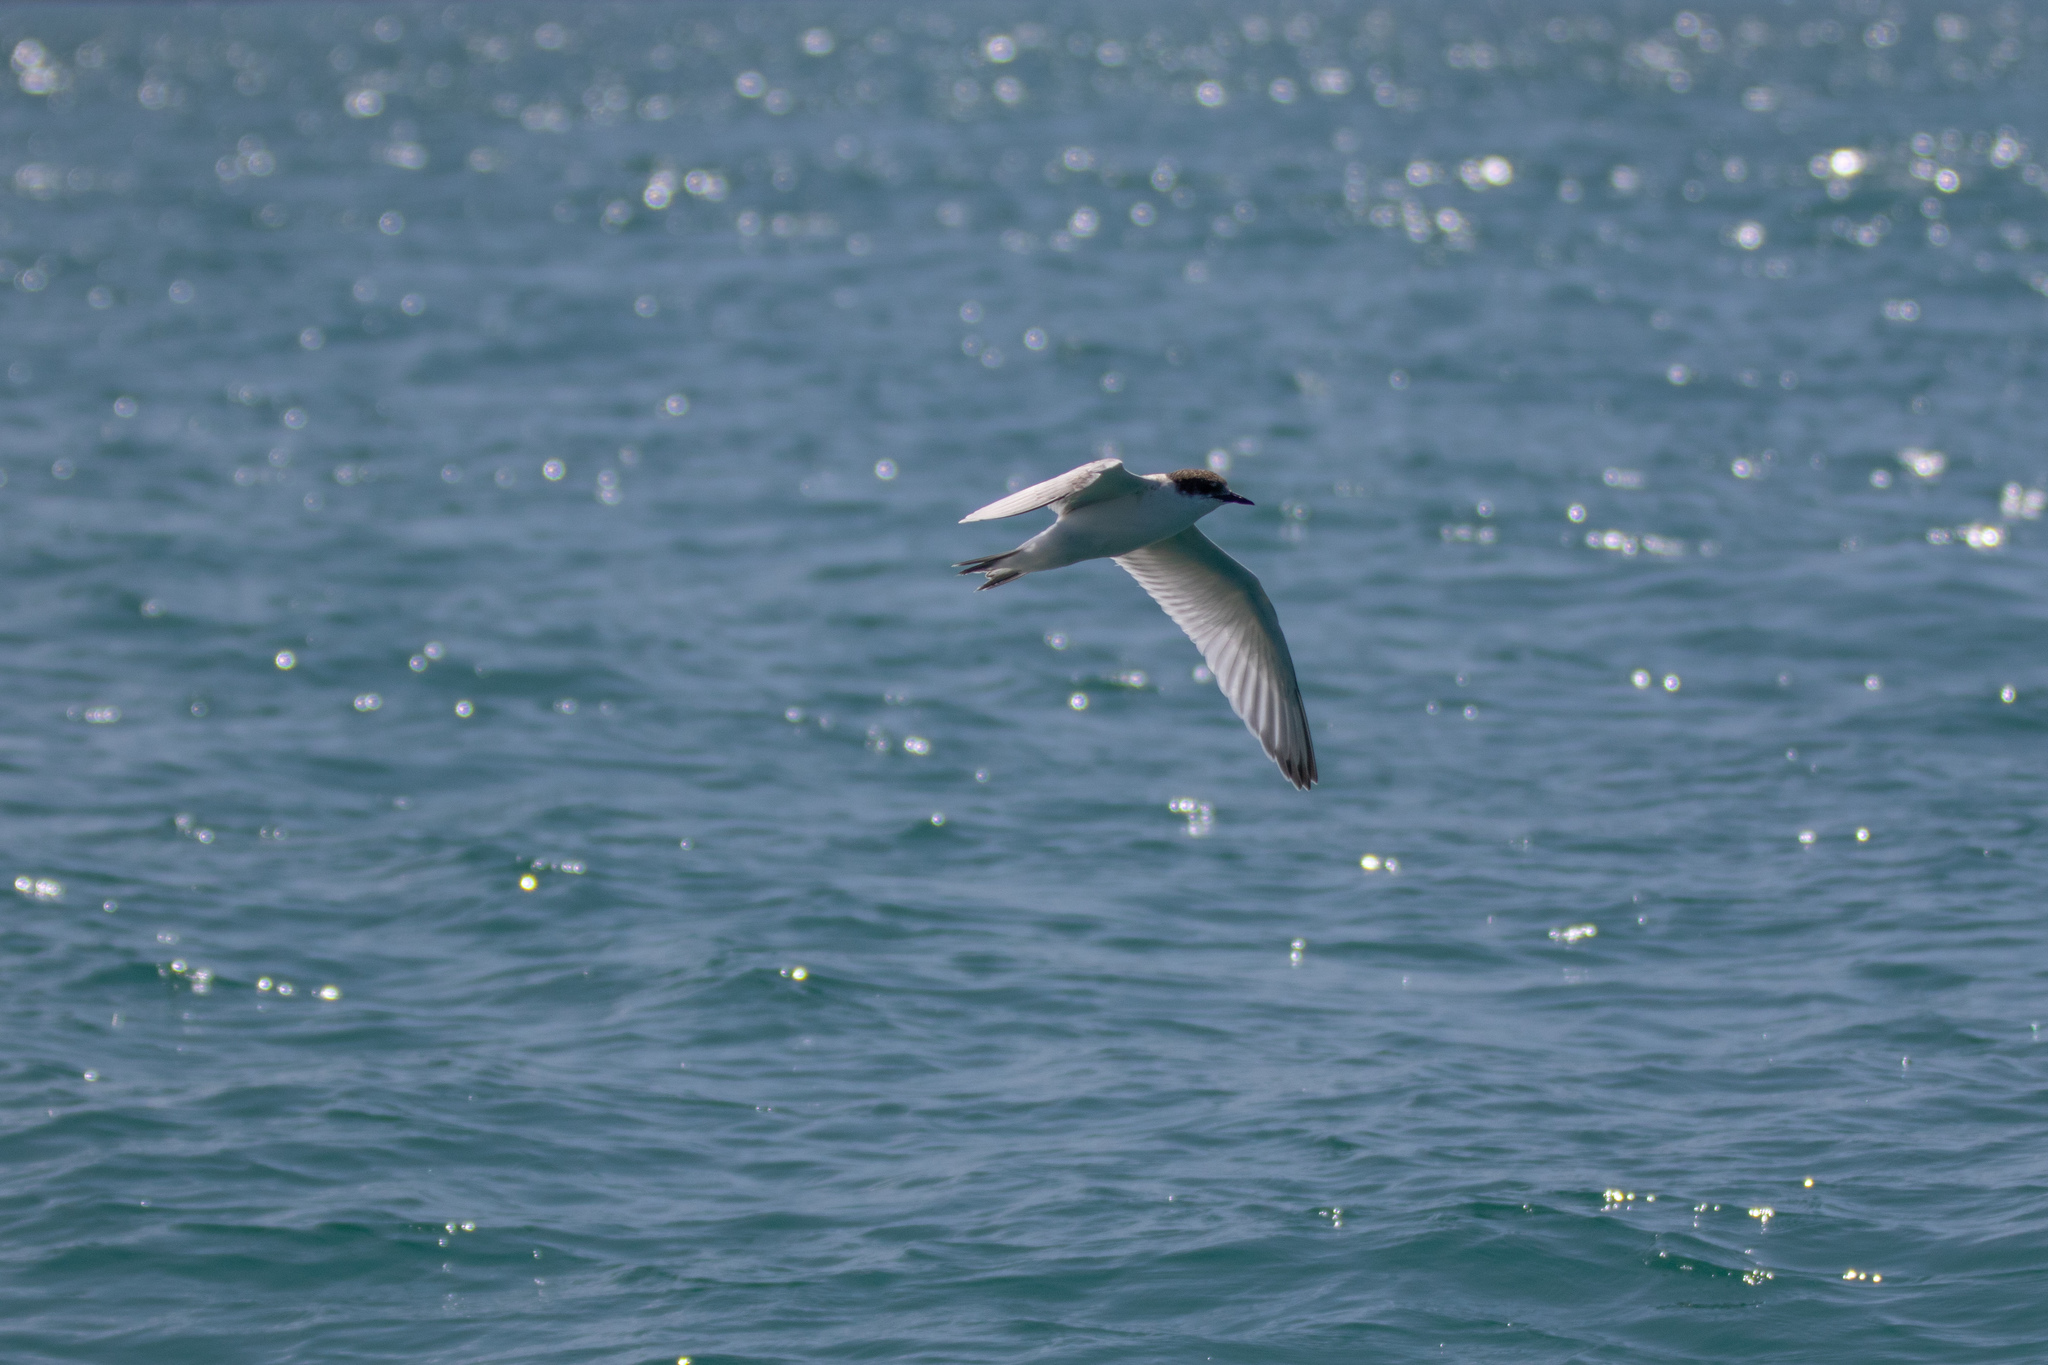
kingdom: Animalia
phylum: Chordata
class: Aves
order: Charadriiformes
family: Laridae
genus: Sterna
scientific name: Sterna striata
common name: White-fronted tern
